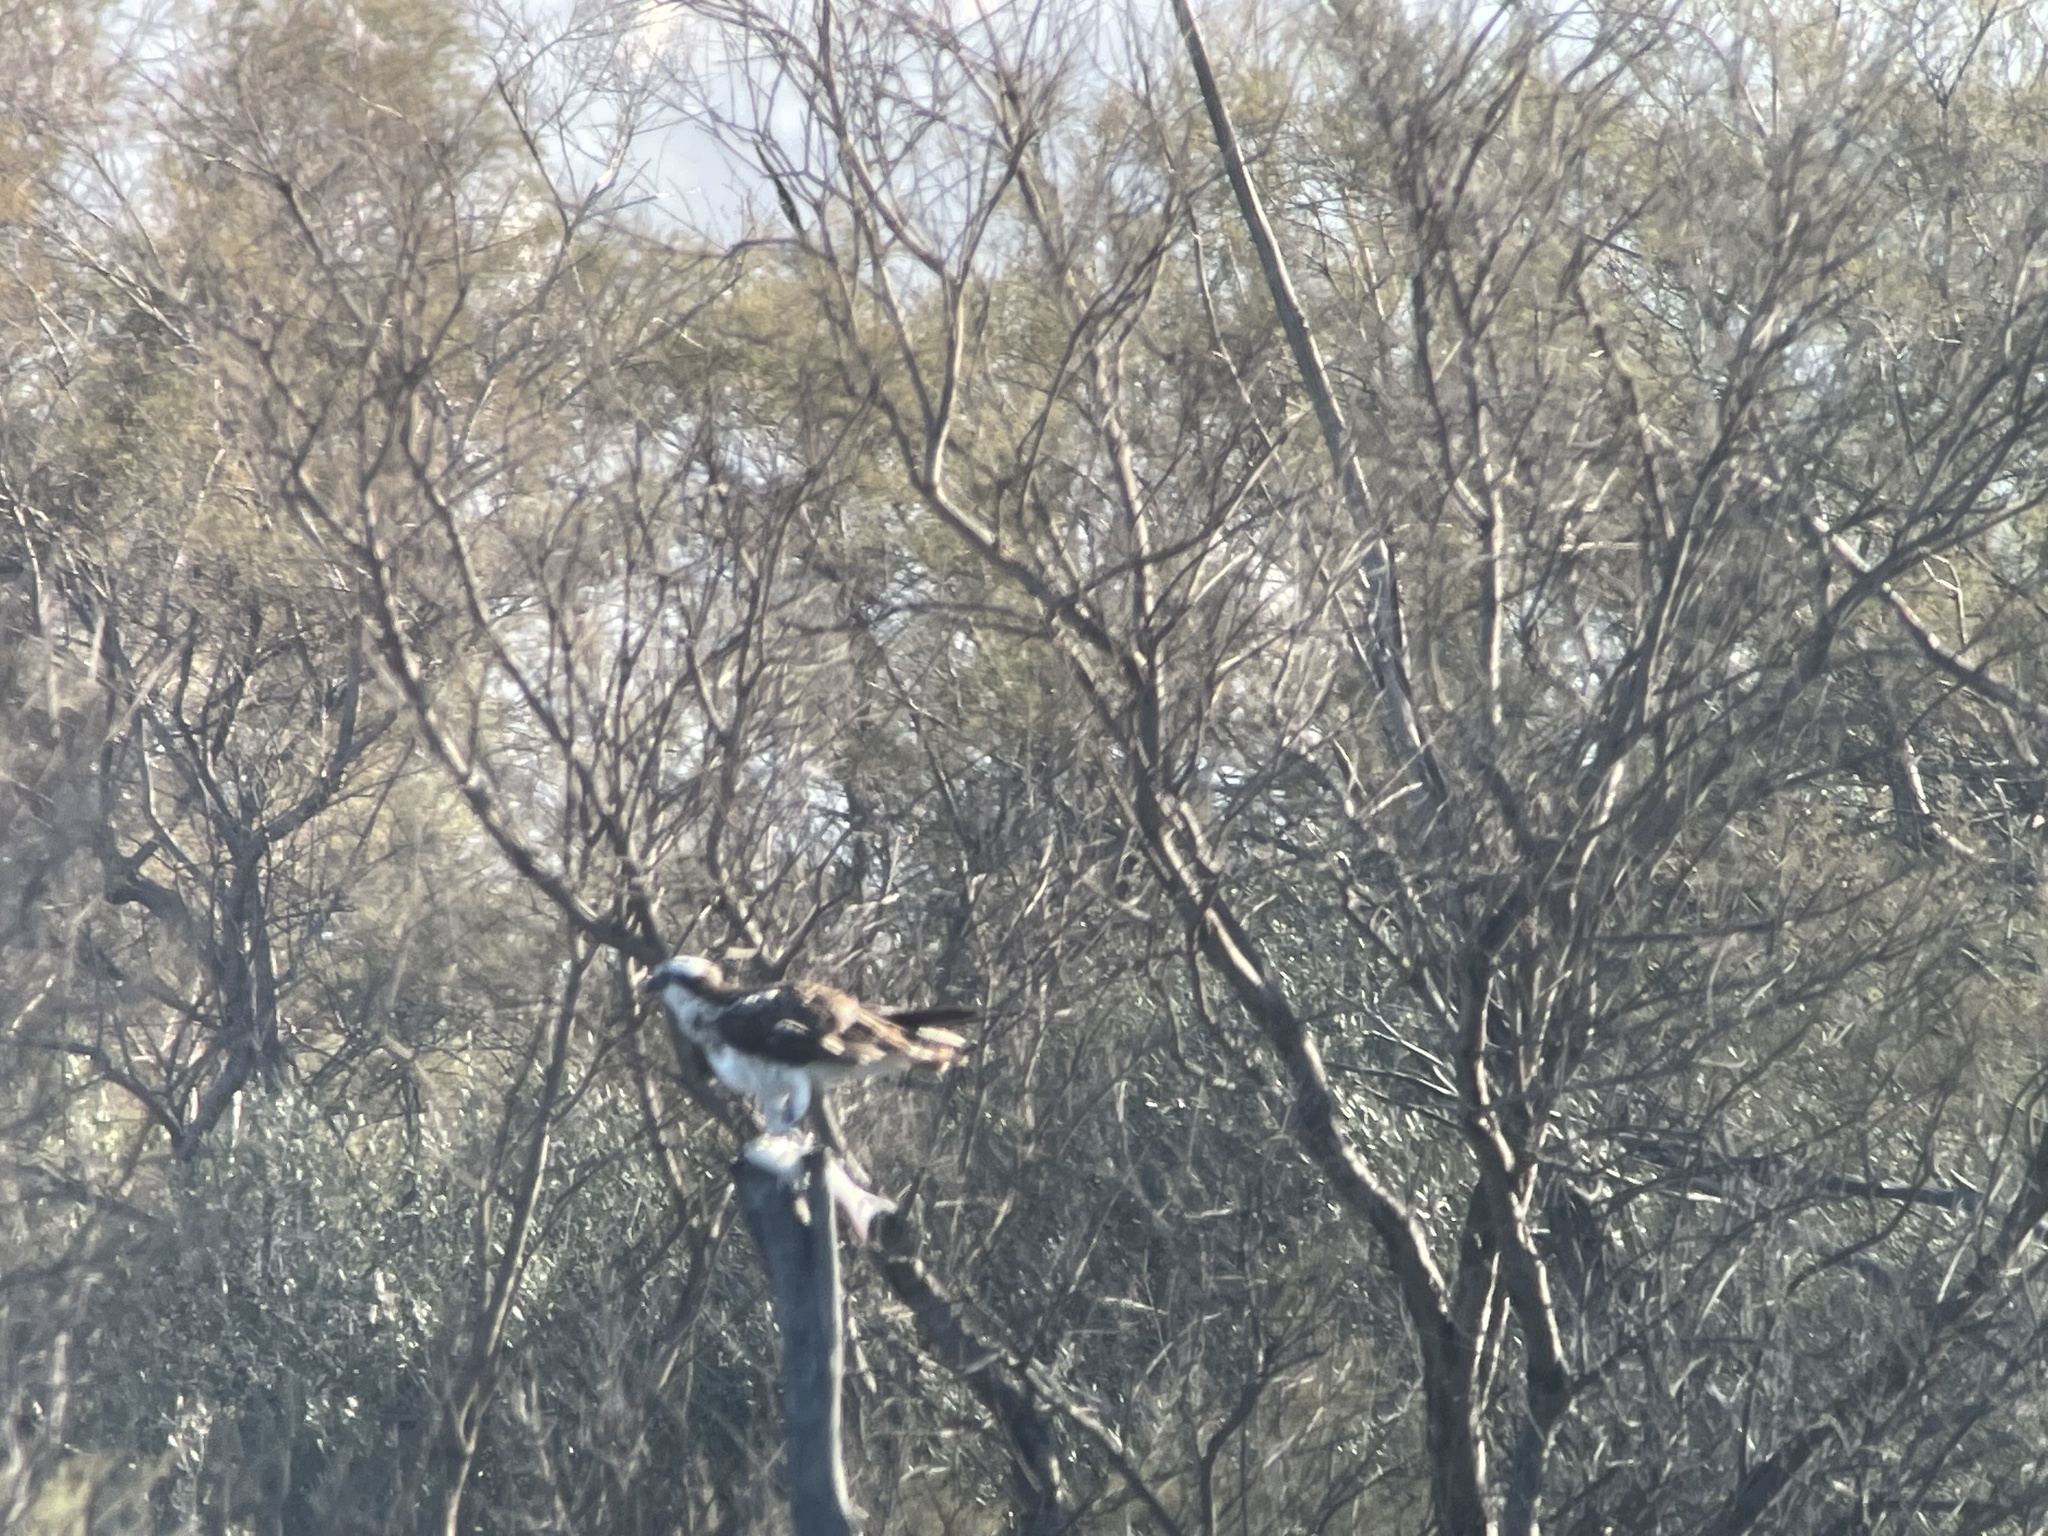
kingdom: Animalia
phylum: Chordata
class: Aves
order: Accipitriformes
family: Pandionidae
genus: Pandion
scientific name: Pandion haliaetus
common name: Osprey
